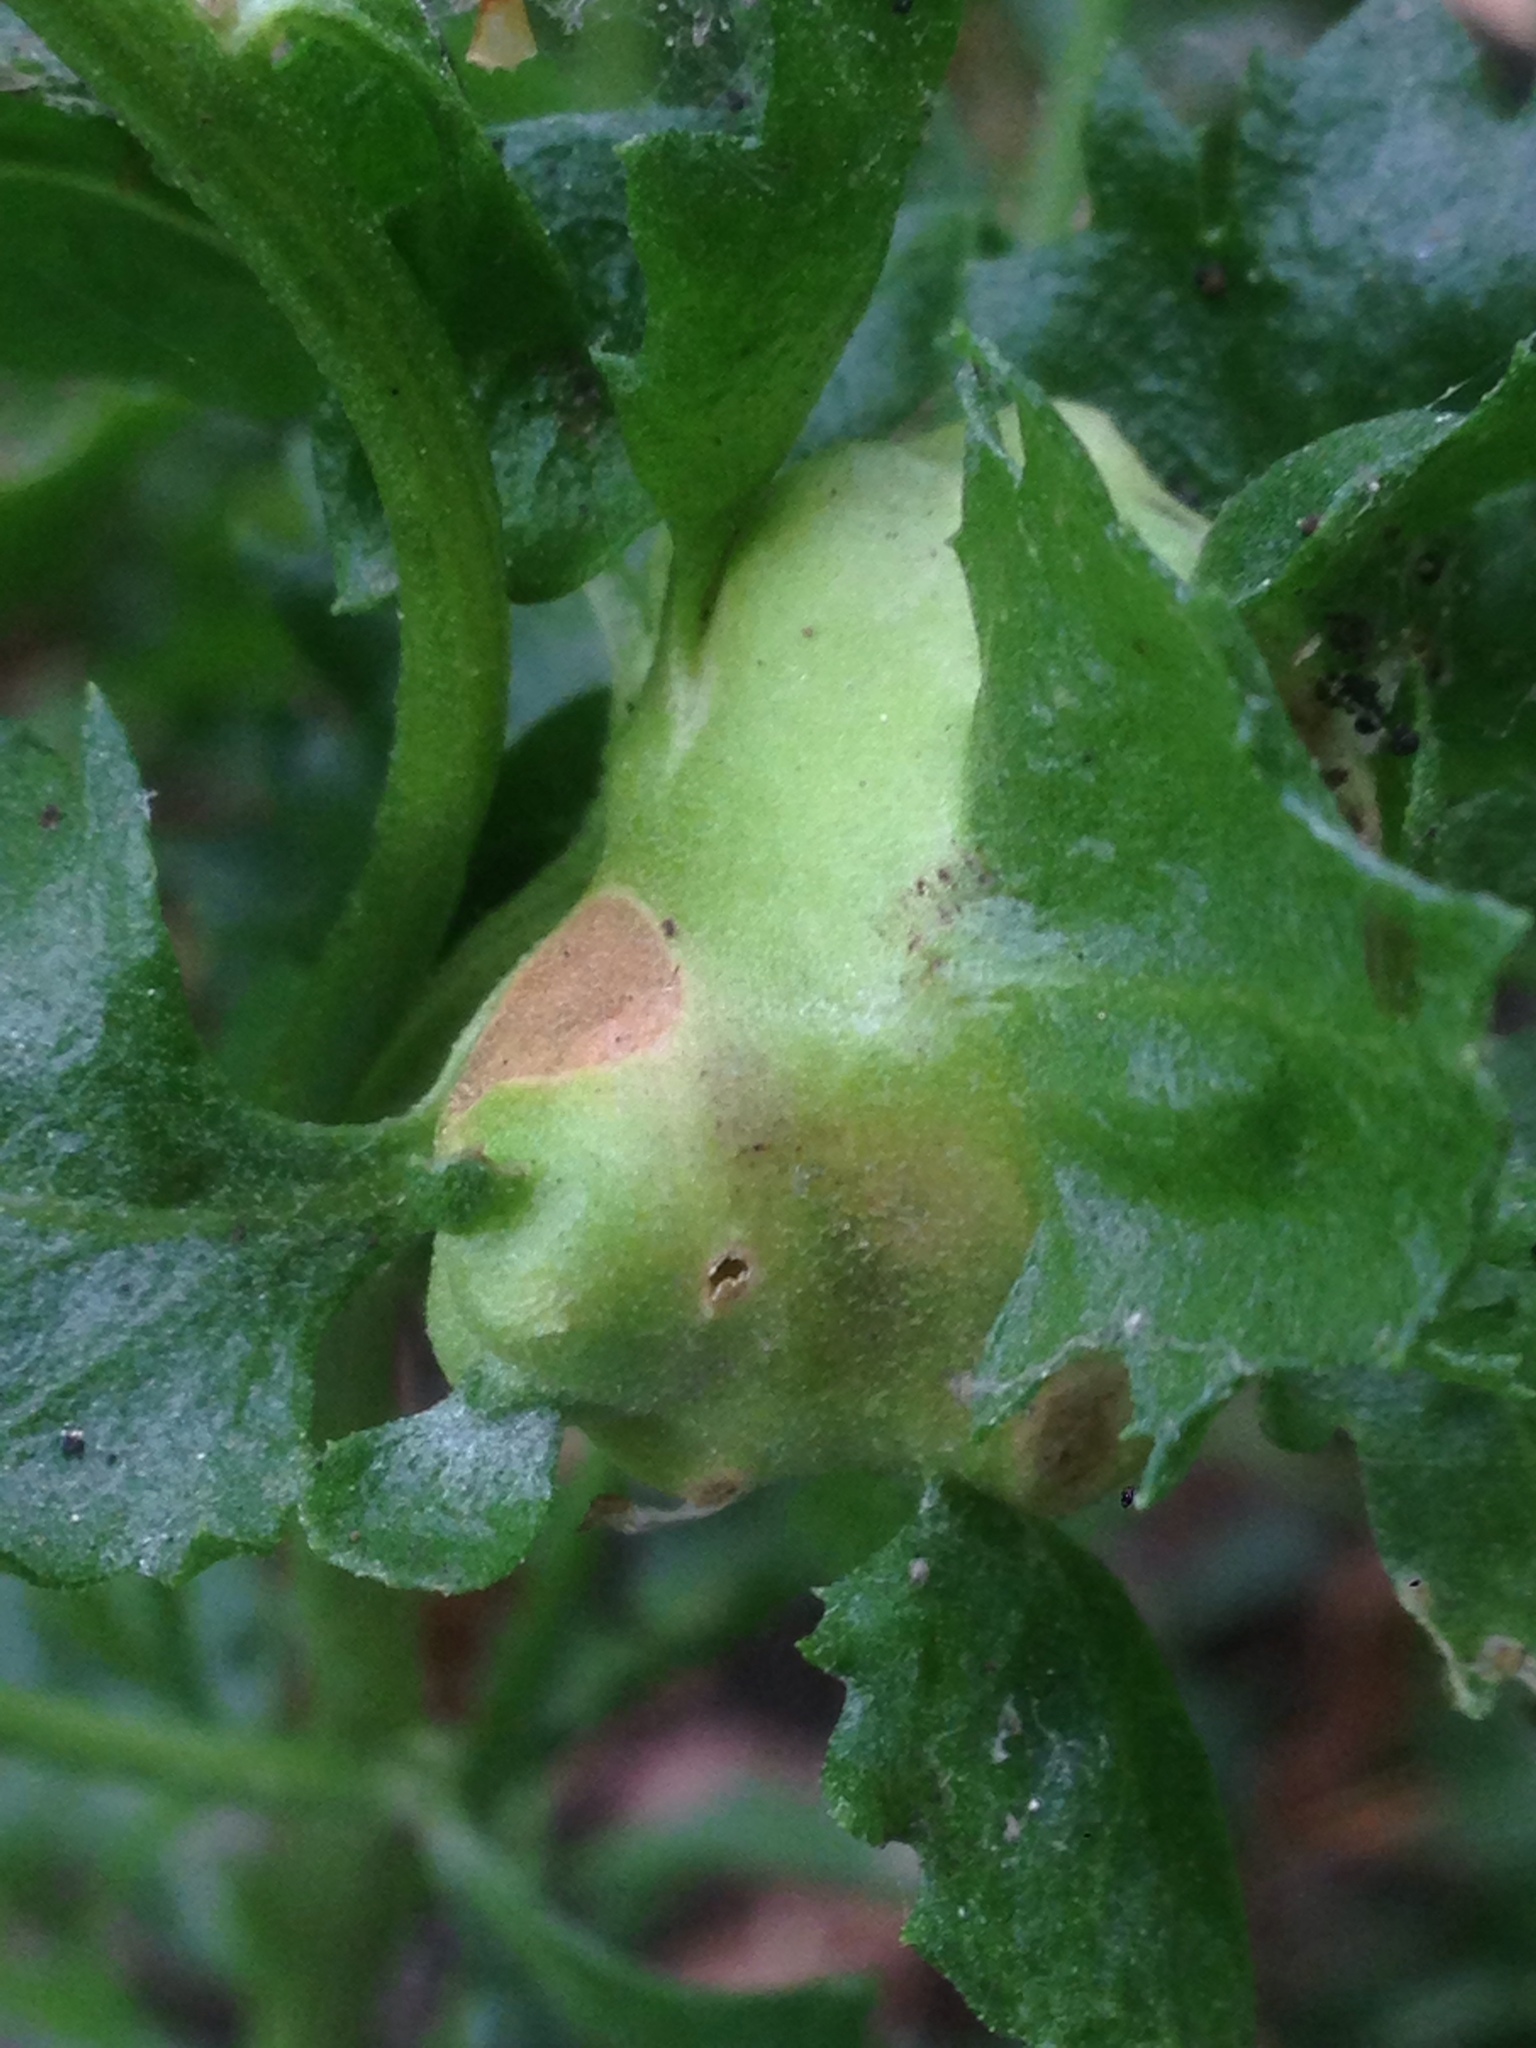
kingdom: Animalia
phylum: Arthropoda
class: Insecta
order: Diptera
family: Cecidomyiidae
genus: Rhopalomyia
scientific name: Rhopalomyia californica
